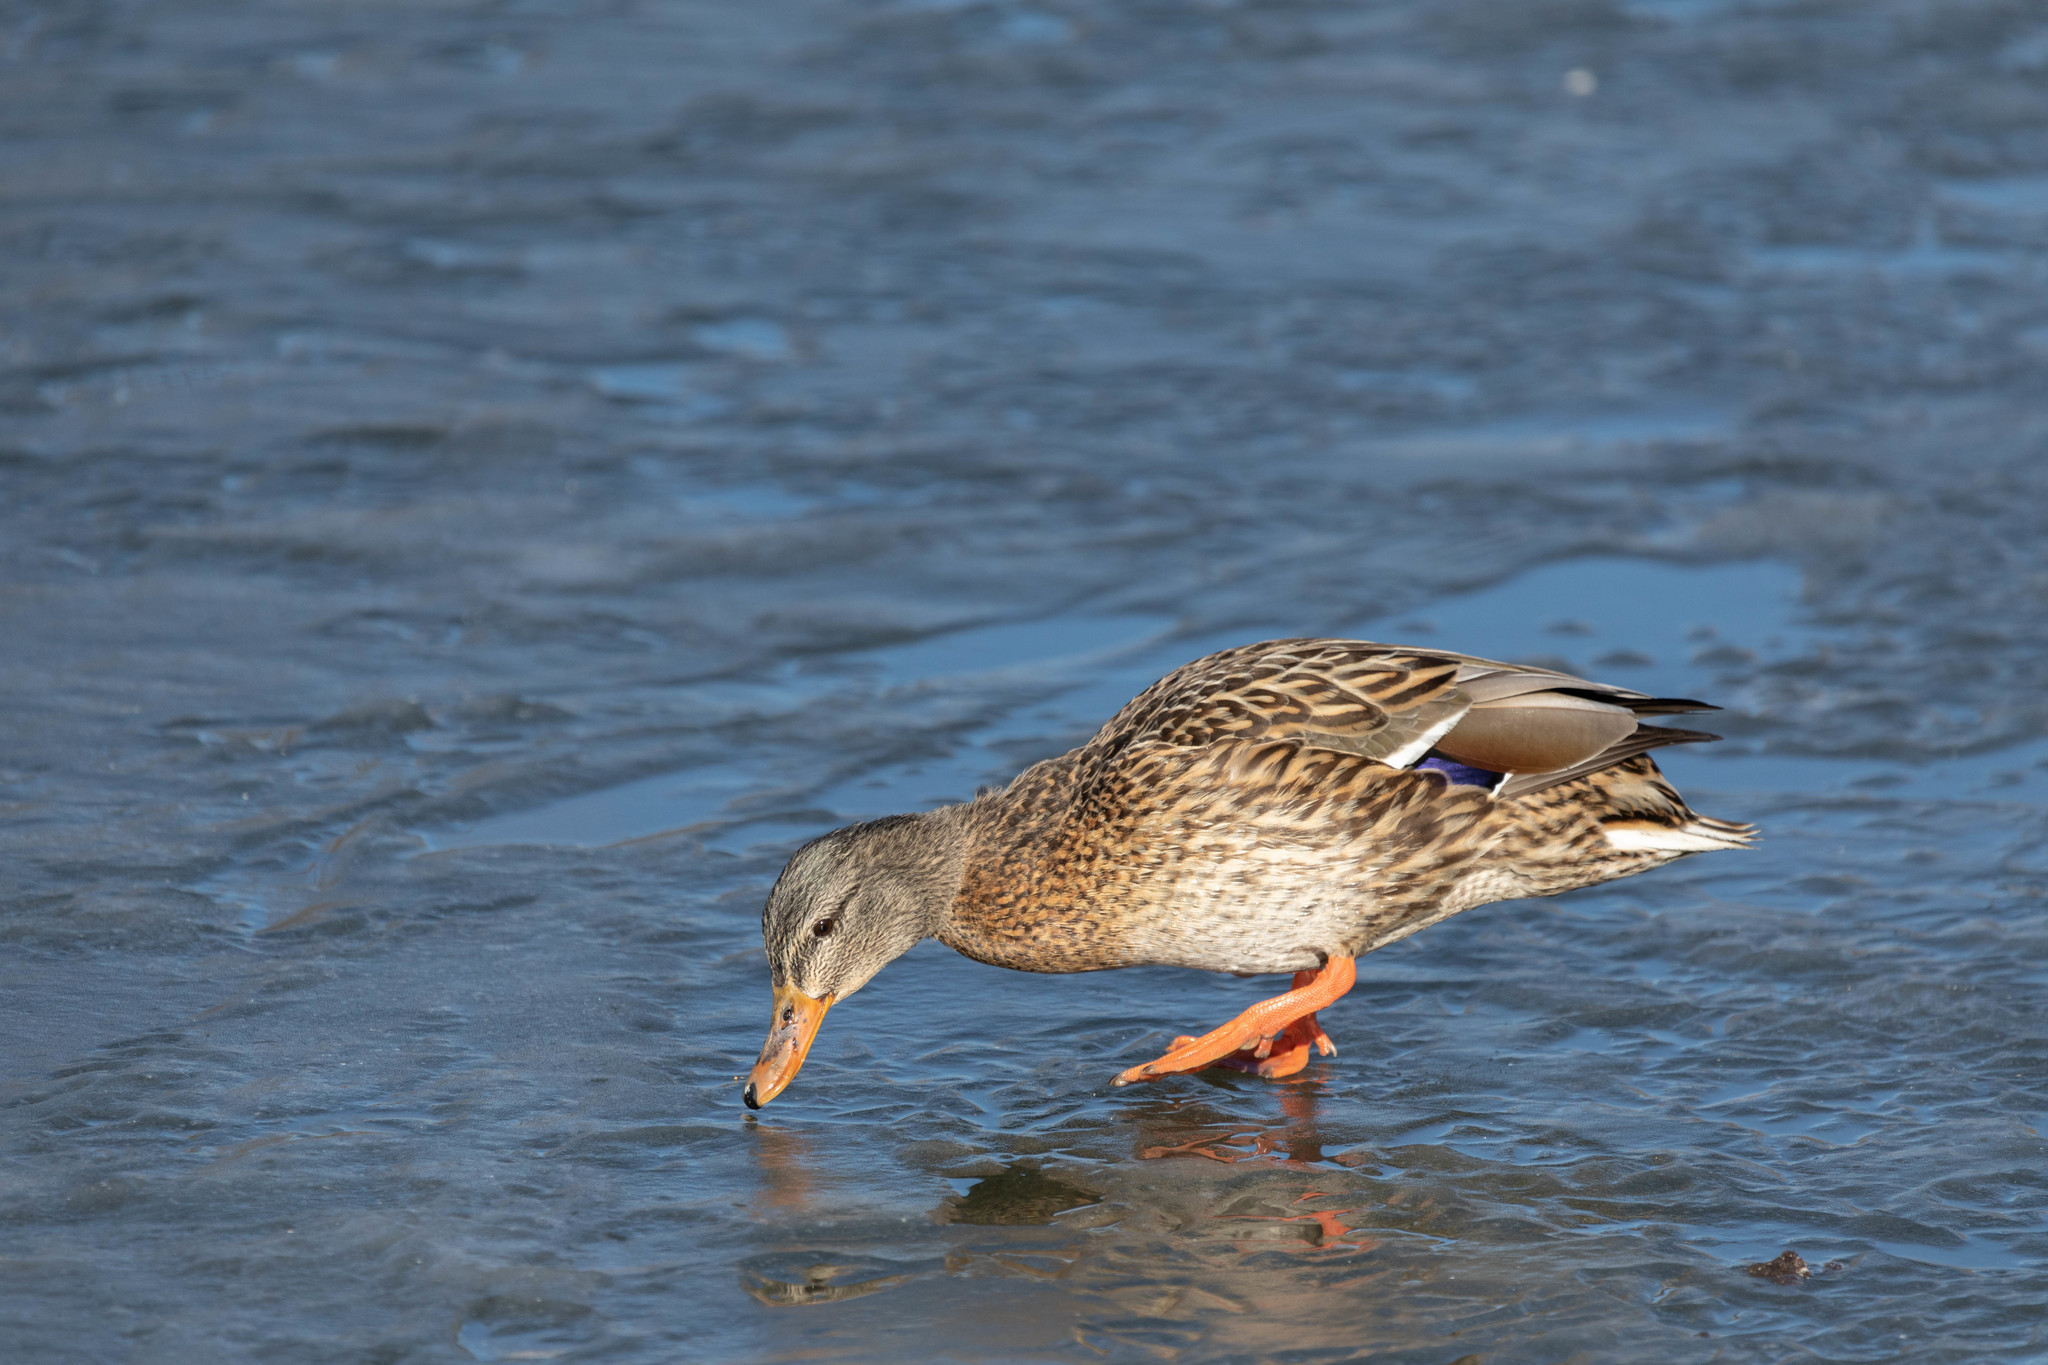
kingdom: Animalia
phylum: Chordata
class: Aves
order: Anseriformes
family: Anatidae
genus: Anas
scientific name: Anas platyrhynchos
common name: Mallard
